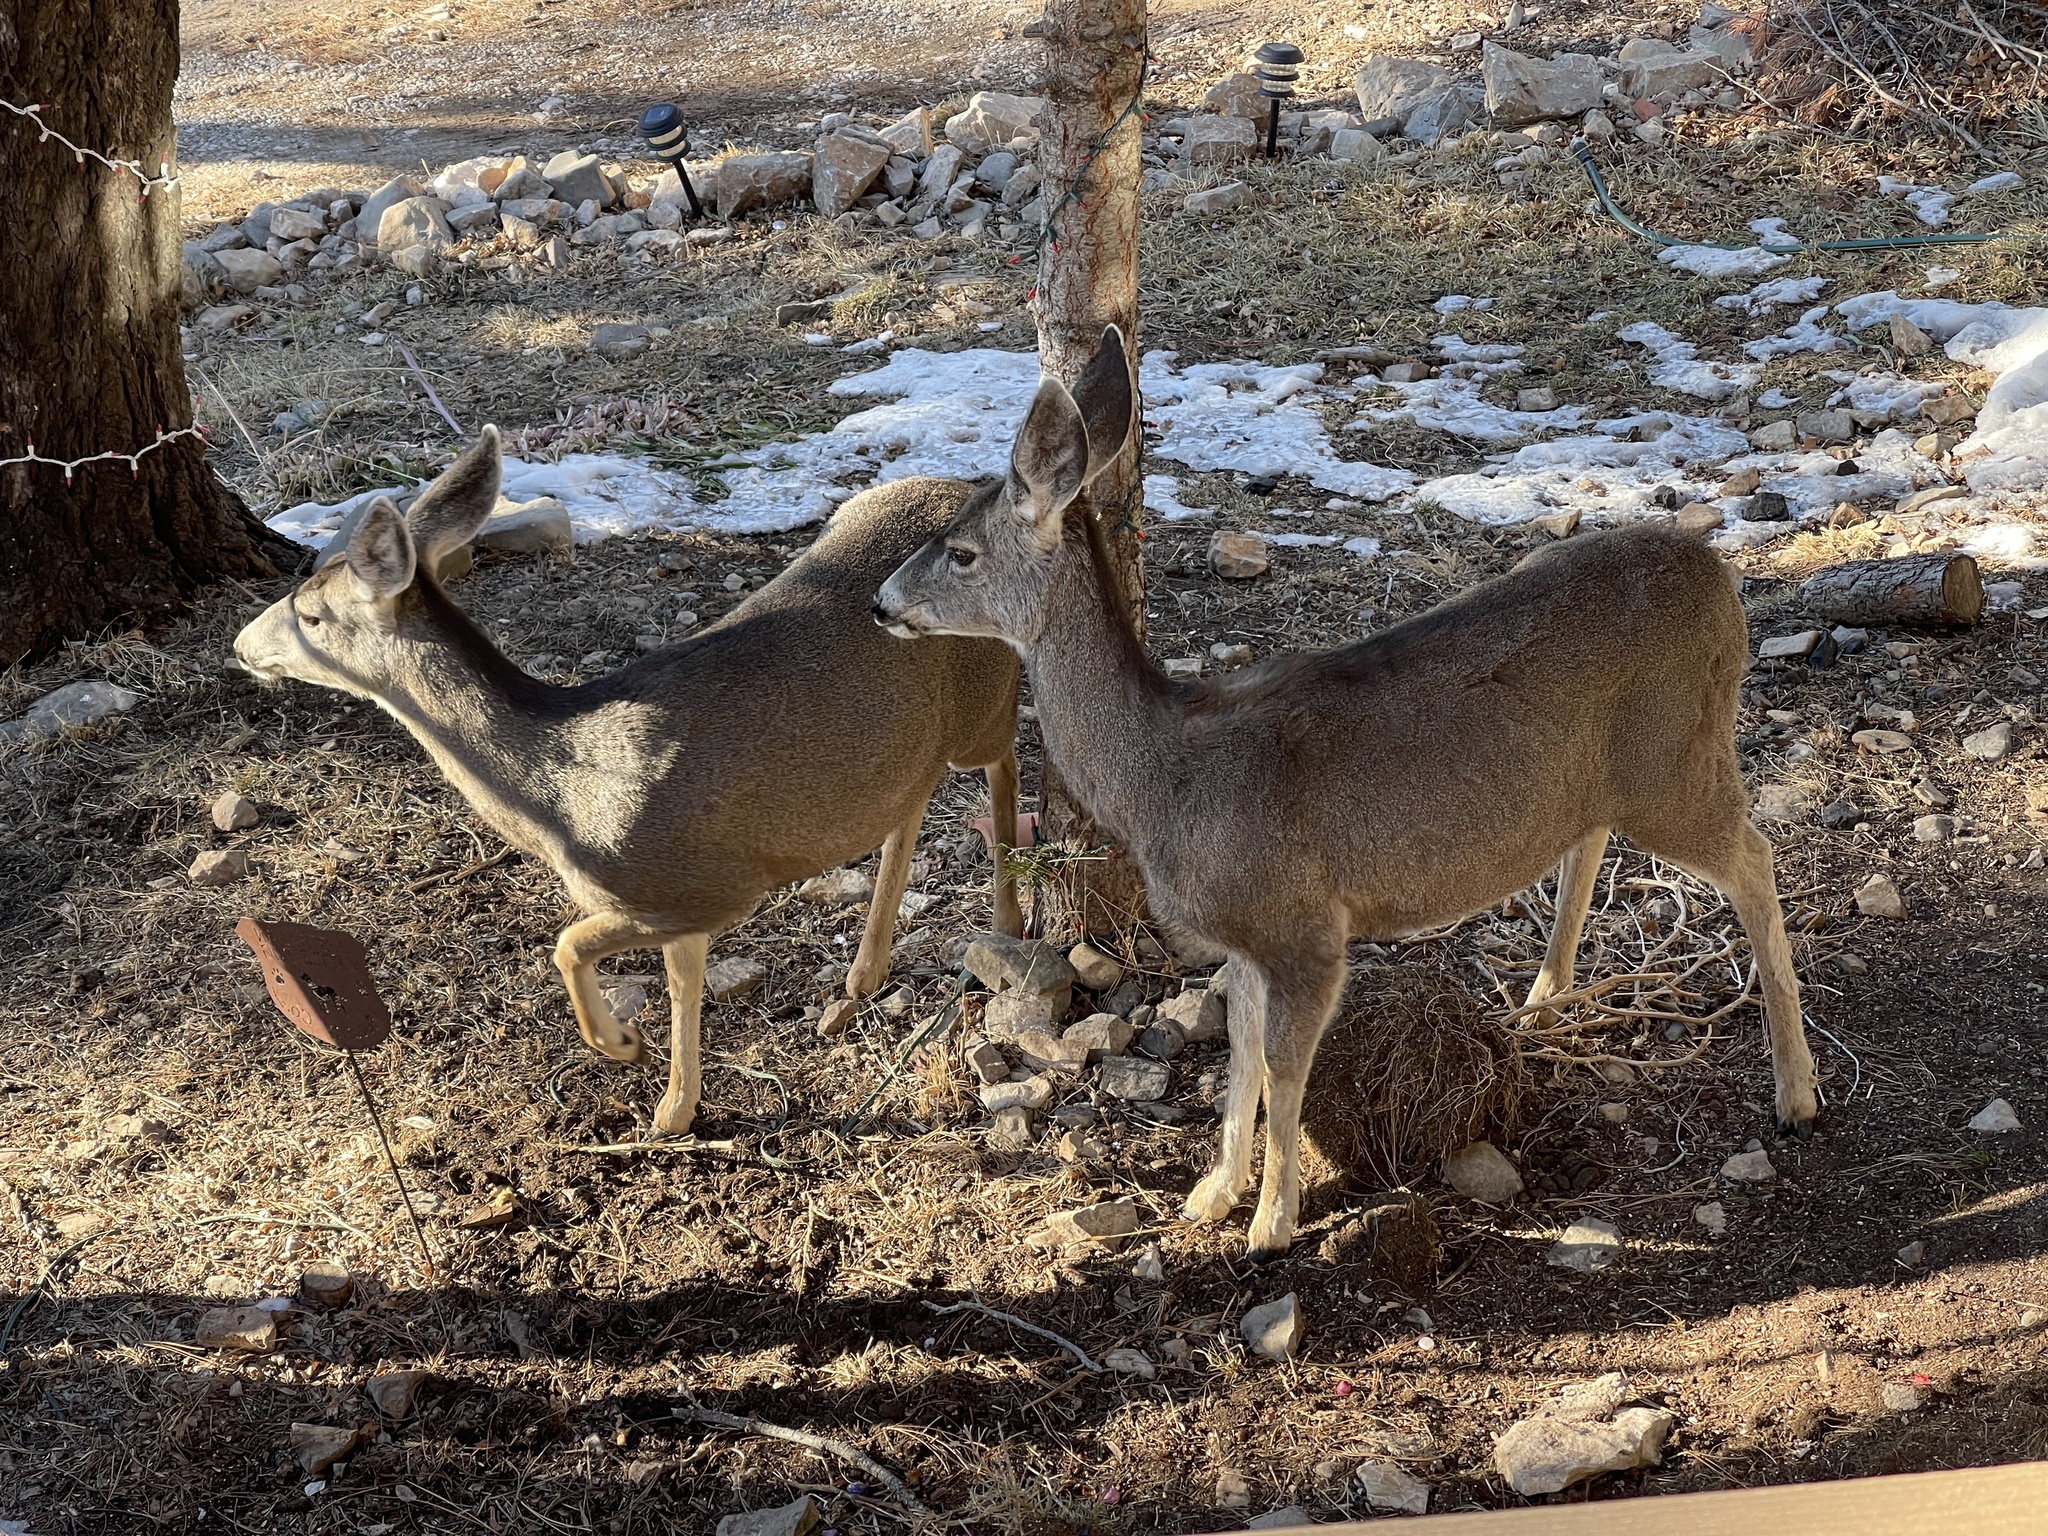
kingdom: Animalia
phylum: Chordata
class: Mammalia
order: Artiodactyla
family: Cervidae
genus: Odocoileus
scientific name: Odocoileus hemionus
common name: Mule deer
